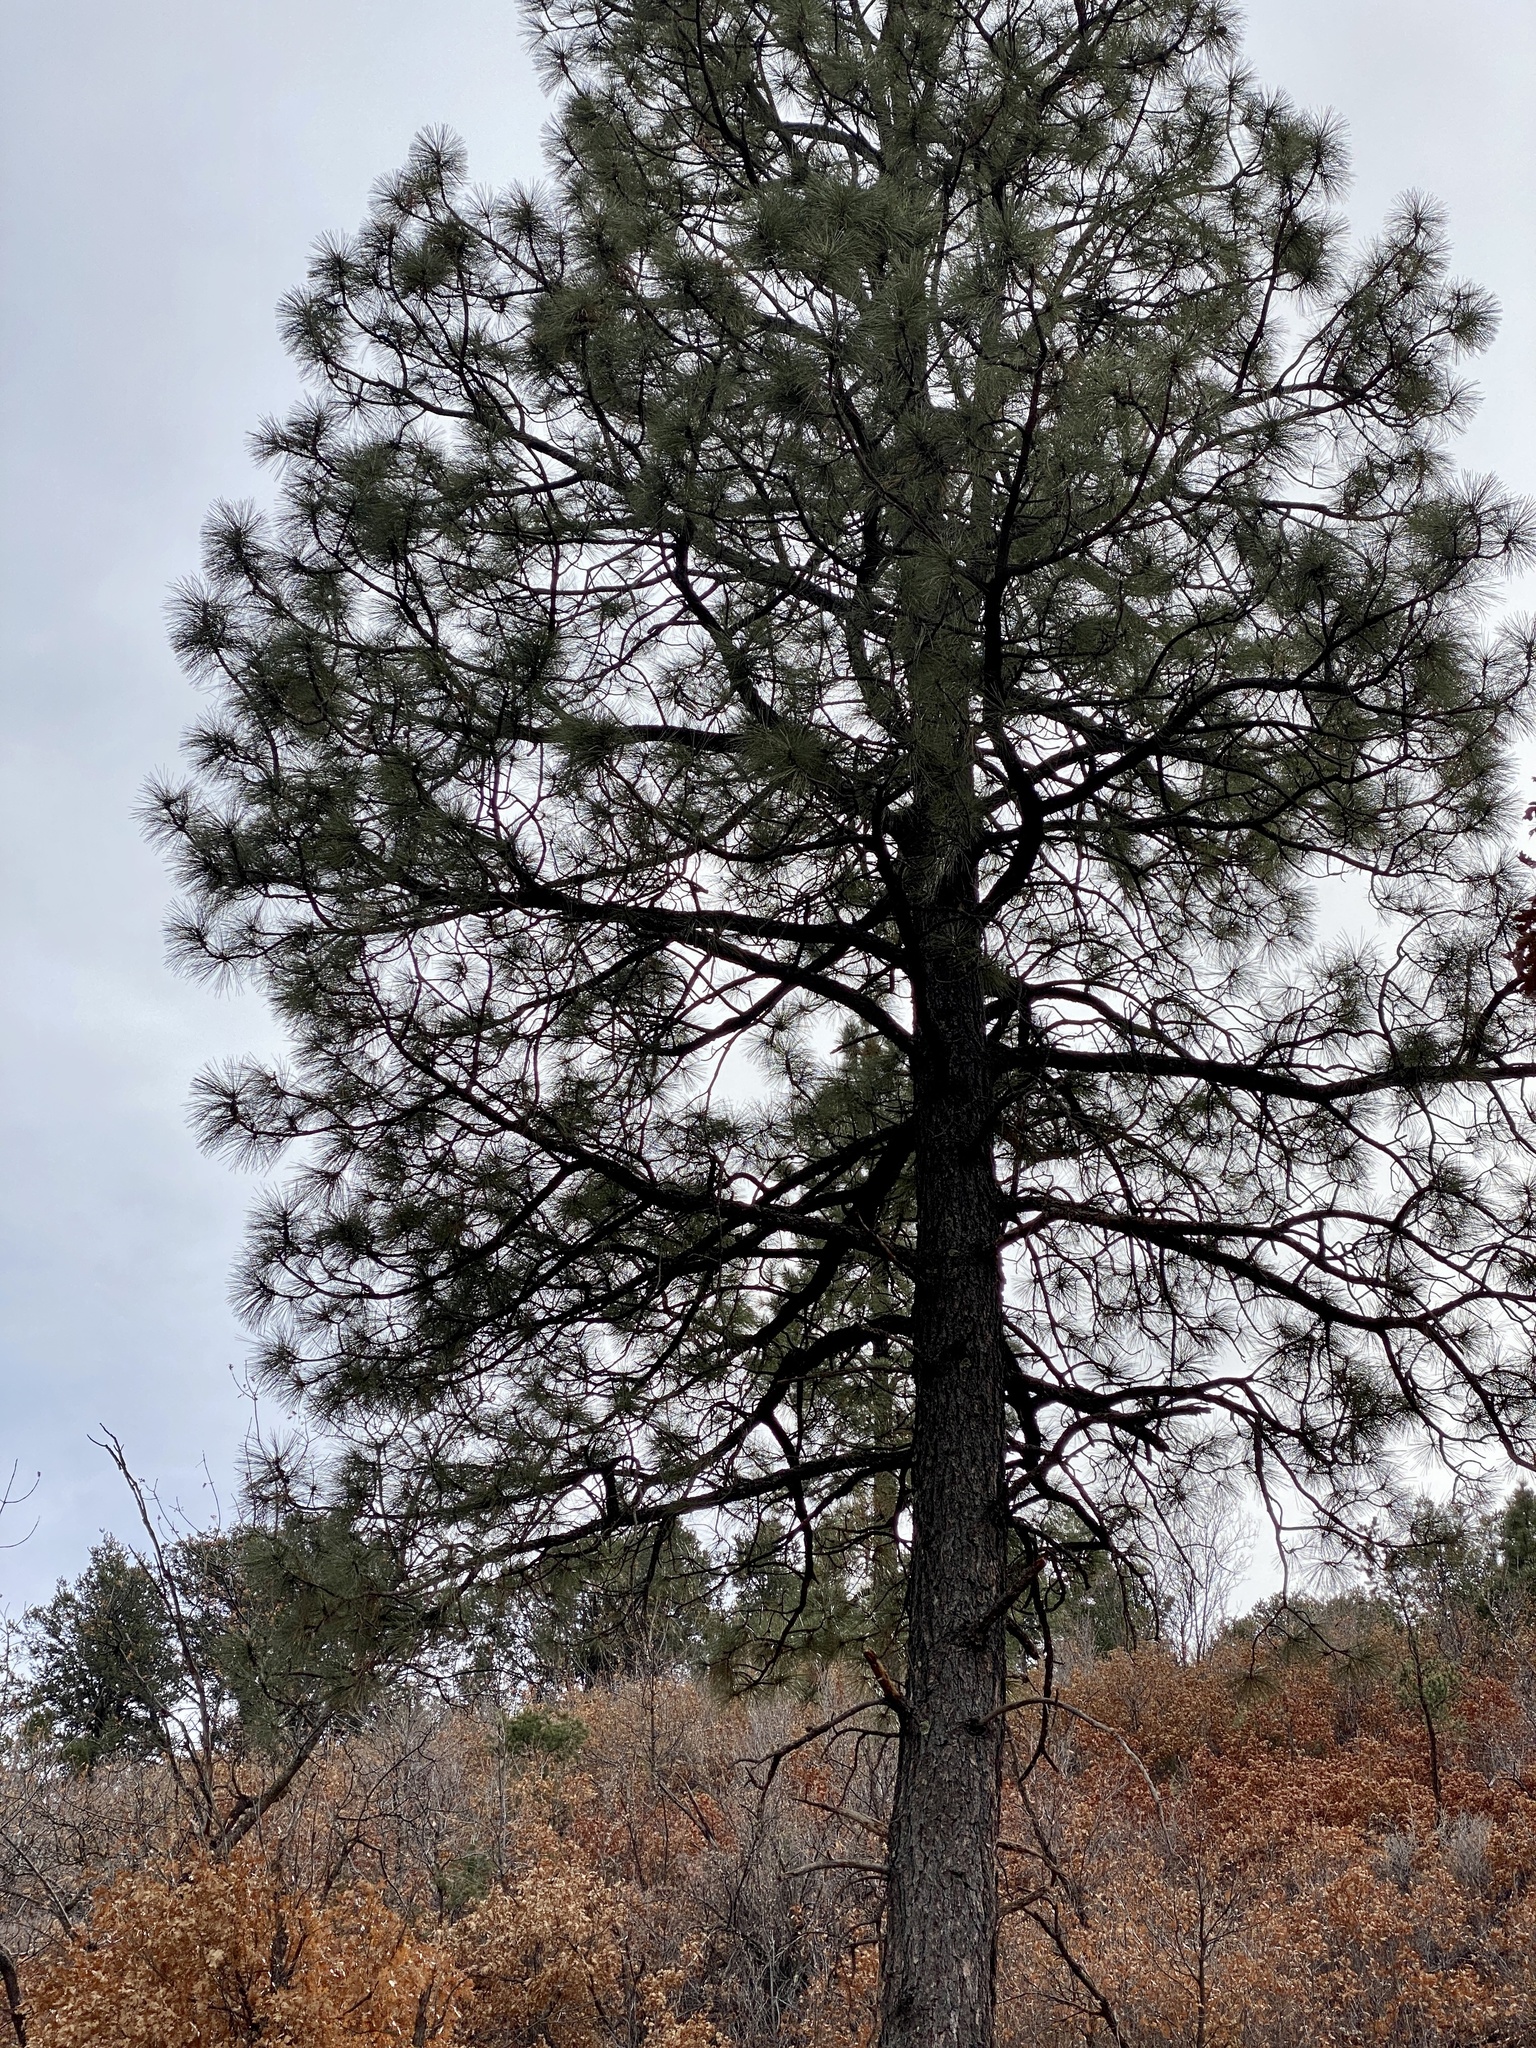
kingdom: Plantae
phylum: Tracheophyta
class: Pinopsida
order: Pinales
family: Pinaceae
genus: Pinus
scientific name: Pinus ponderosa
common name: Western yellow-pine
